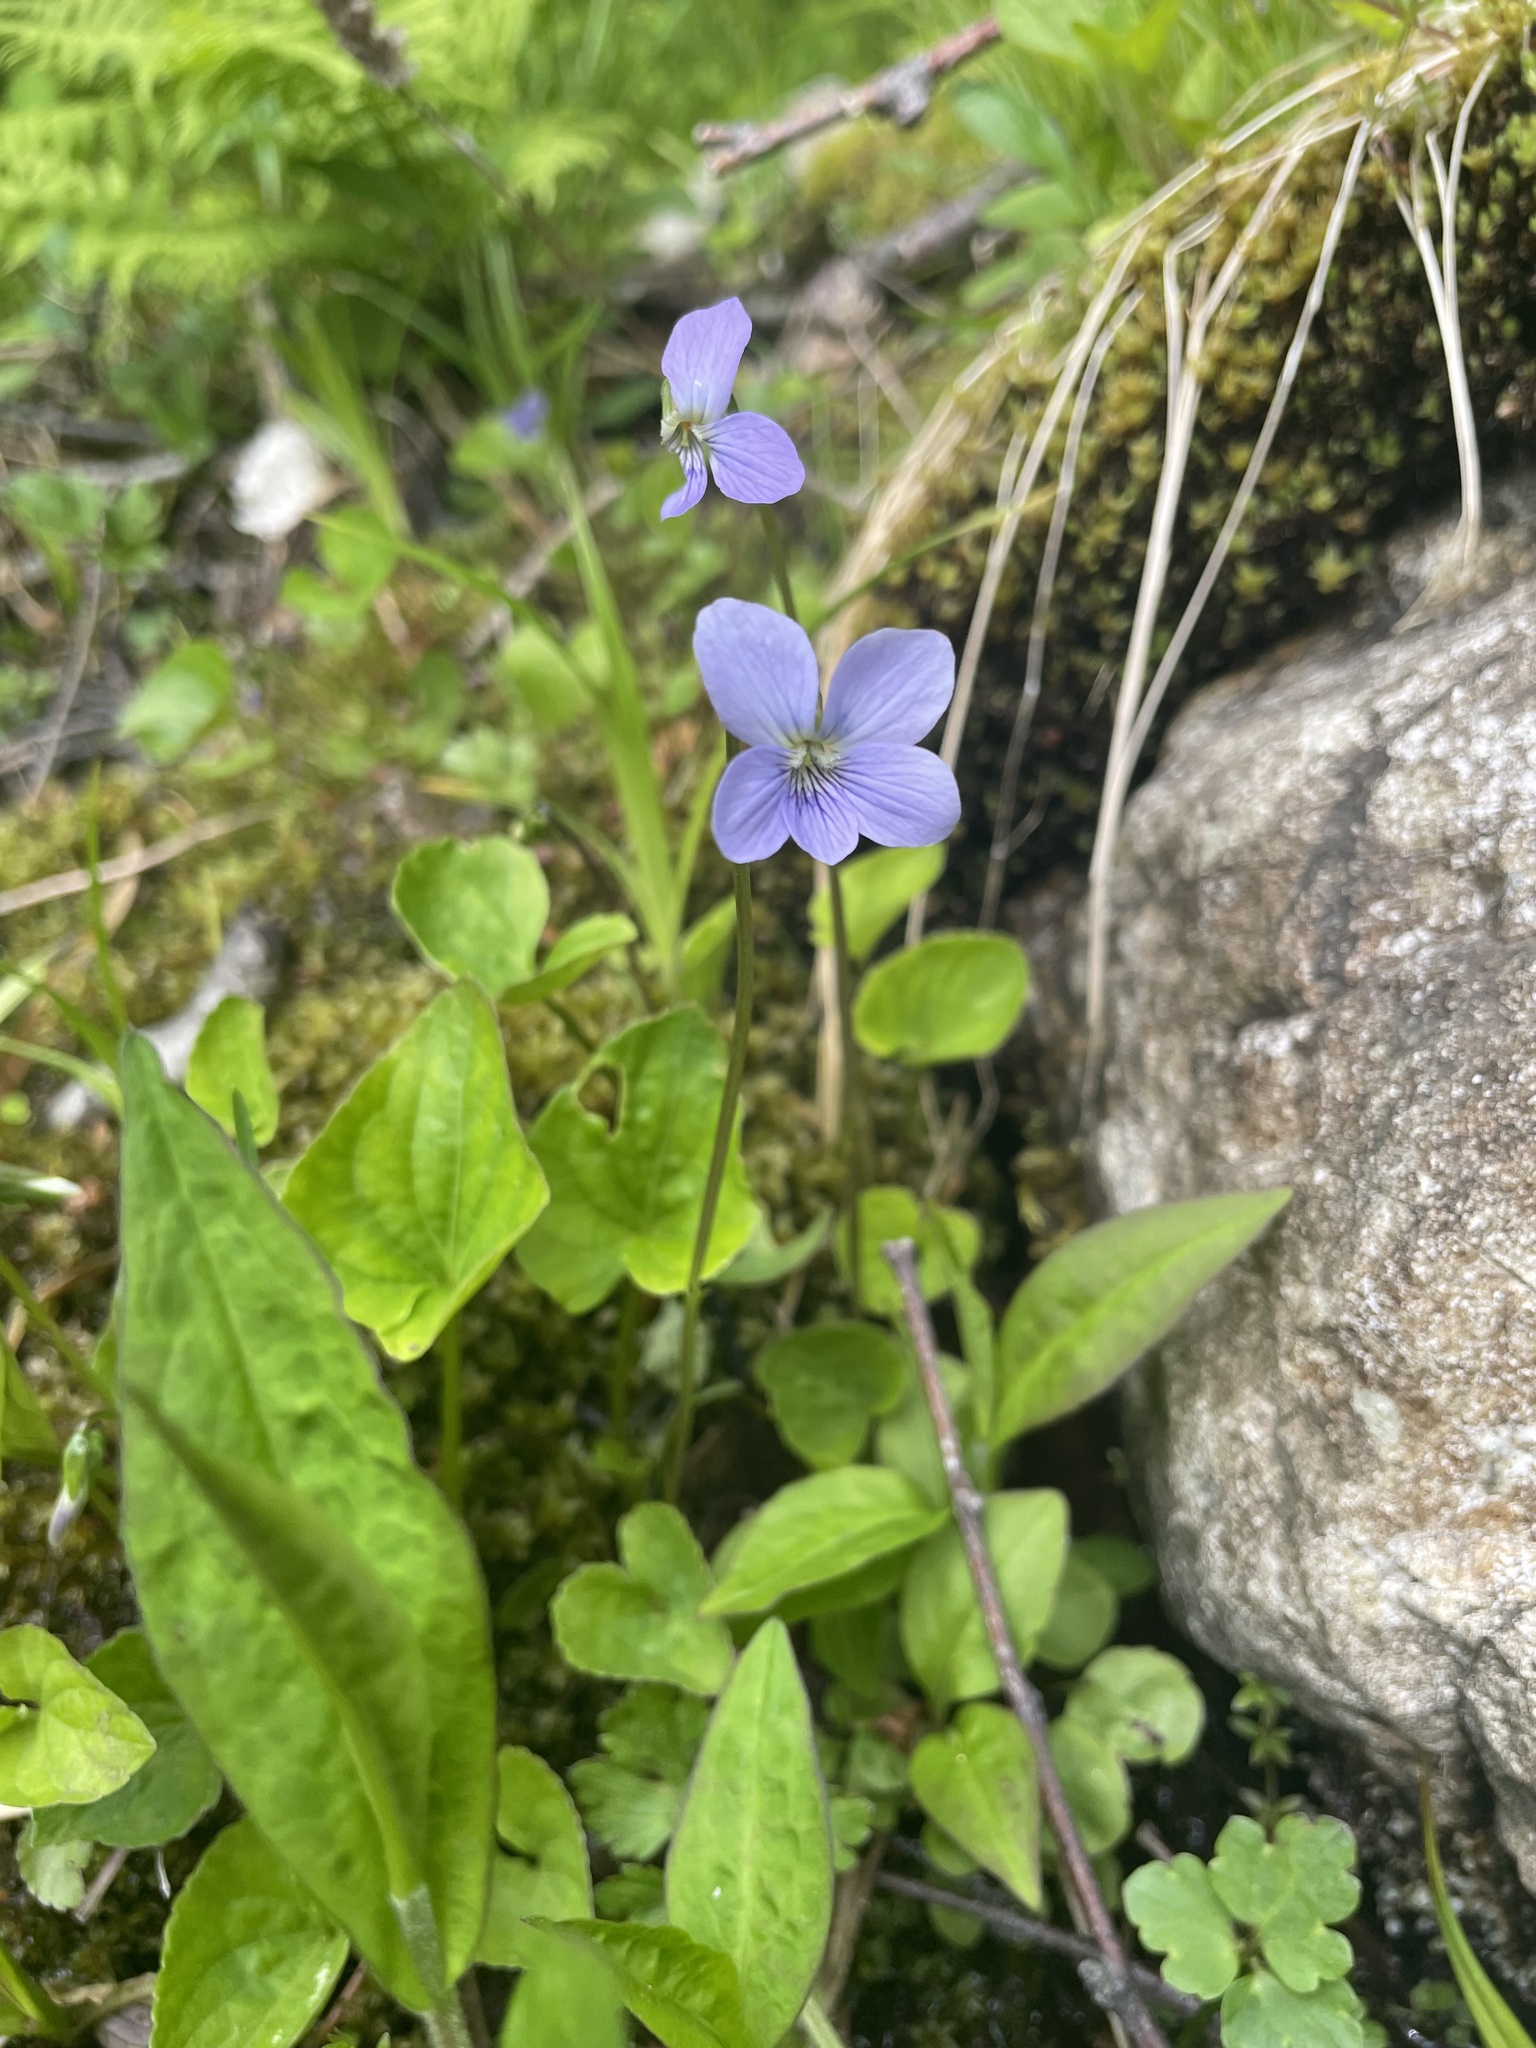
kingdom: Plantae
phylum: Tracheophyta
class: Magnoliopsida
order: Malpighiales
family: Violaceae
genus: Viola
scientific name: Viola cucullata
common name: Marsh blue violet
